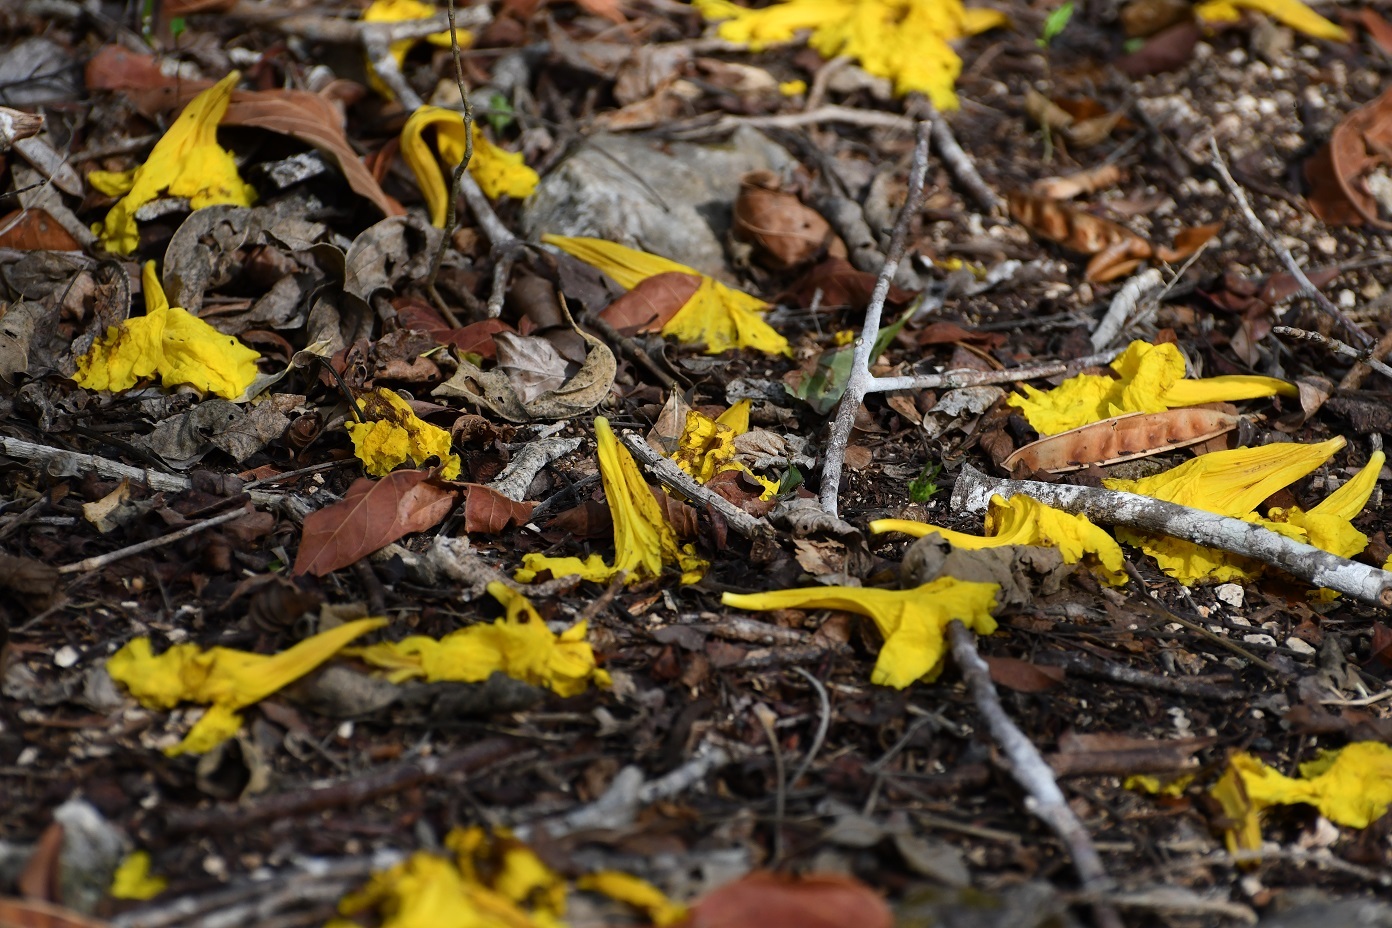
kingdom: Plantae
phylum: Tracheophyta
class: Magnoliopsida
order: Lamiales
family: Bignoniaceae
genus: Handroanthus
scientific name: Handroanthus chrysanthus
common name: Trumpet trees
